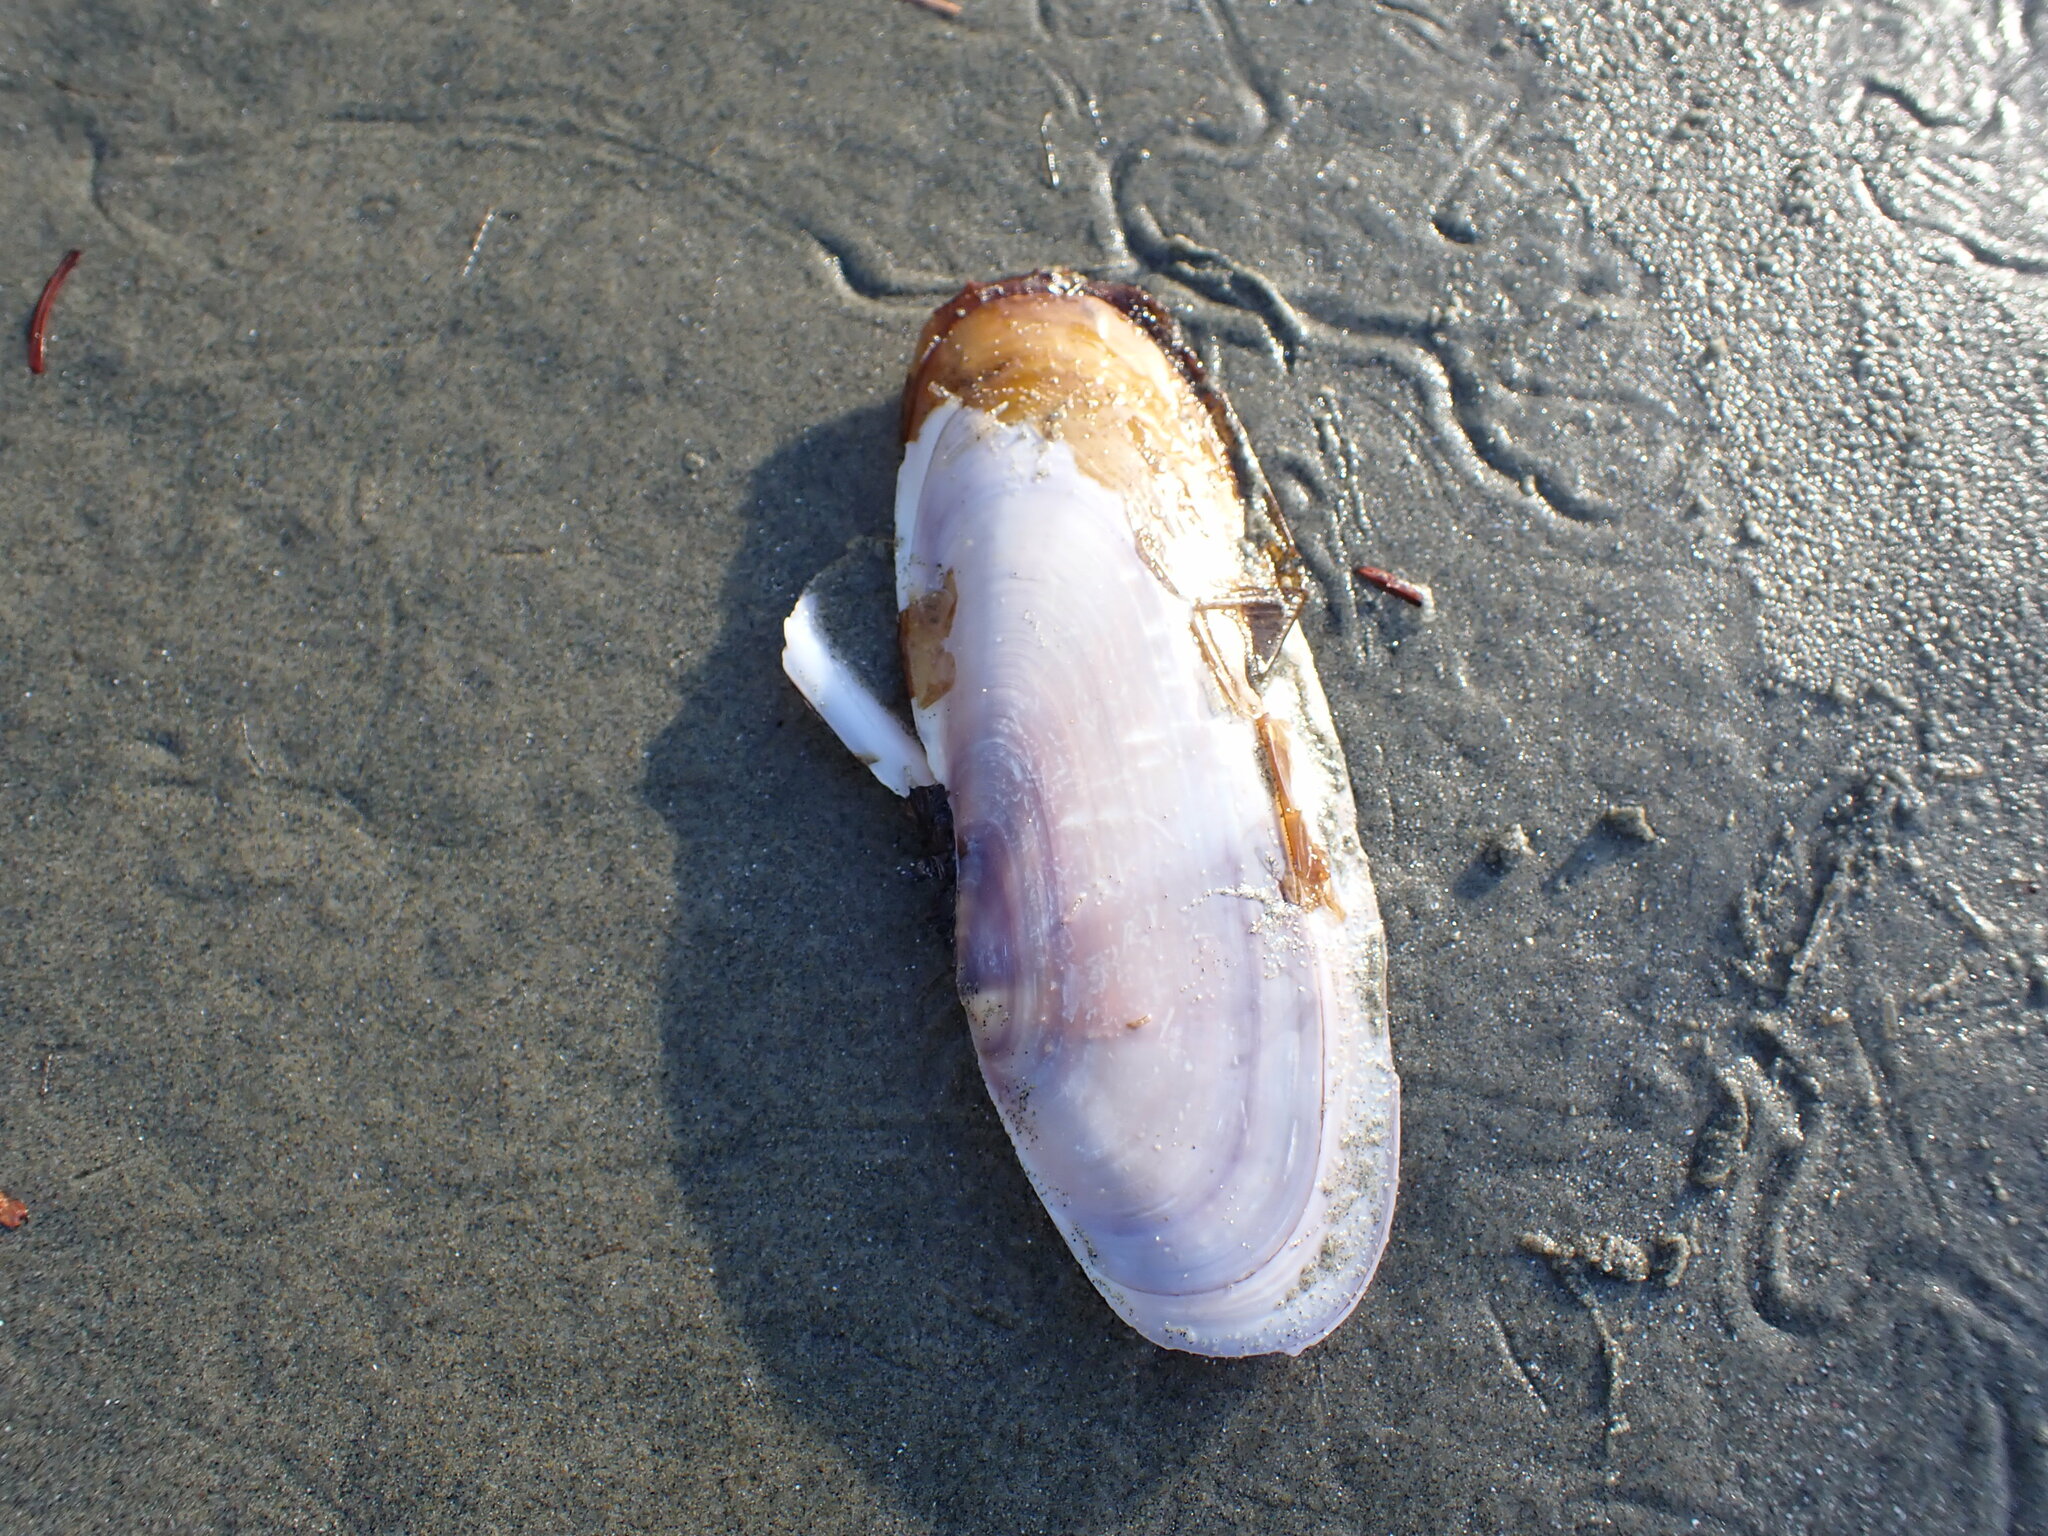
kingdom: Animalia
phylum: Mollusca
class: Bivalvia
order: Adapedonta
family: Pharidae
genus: Siliqua
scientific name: Siliqua patula
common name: Pacific razor clam
